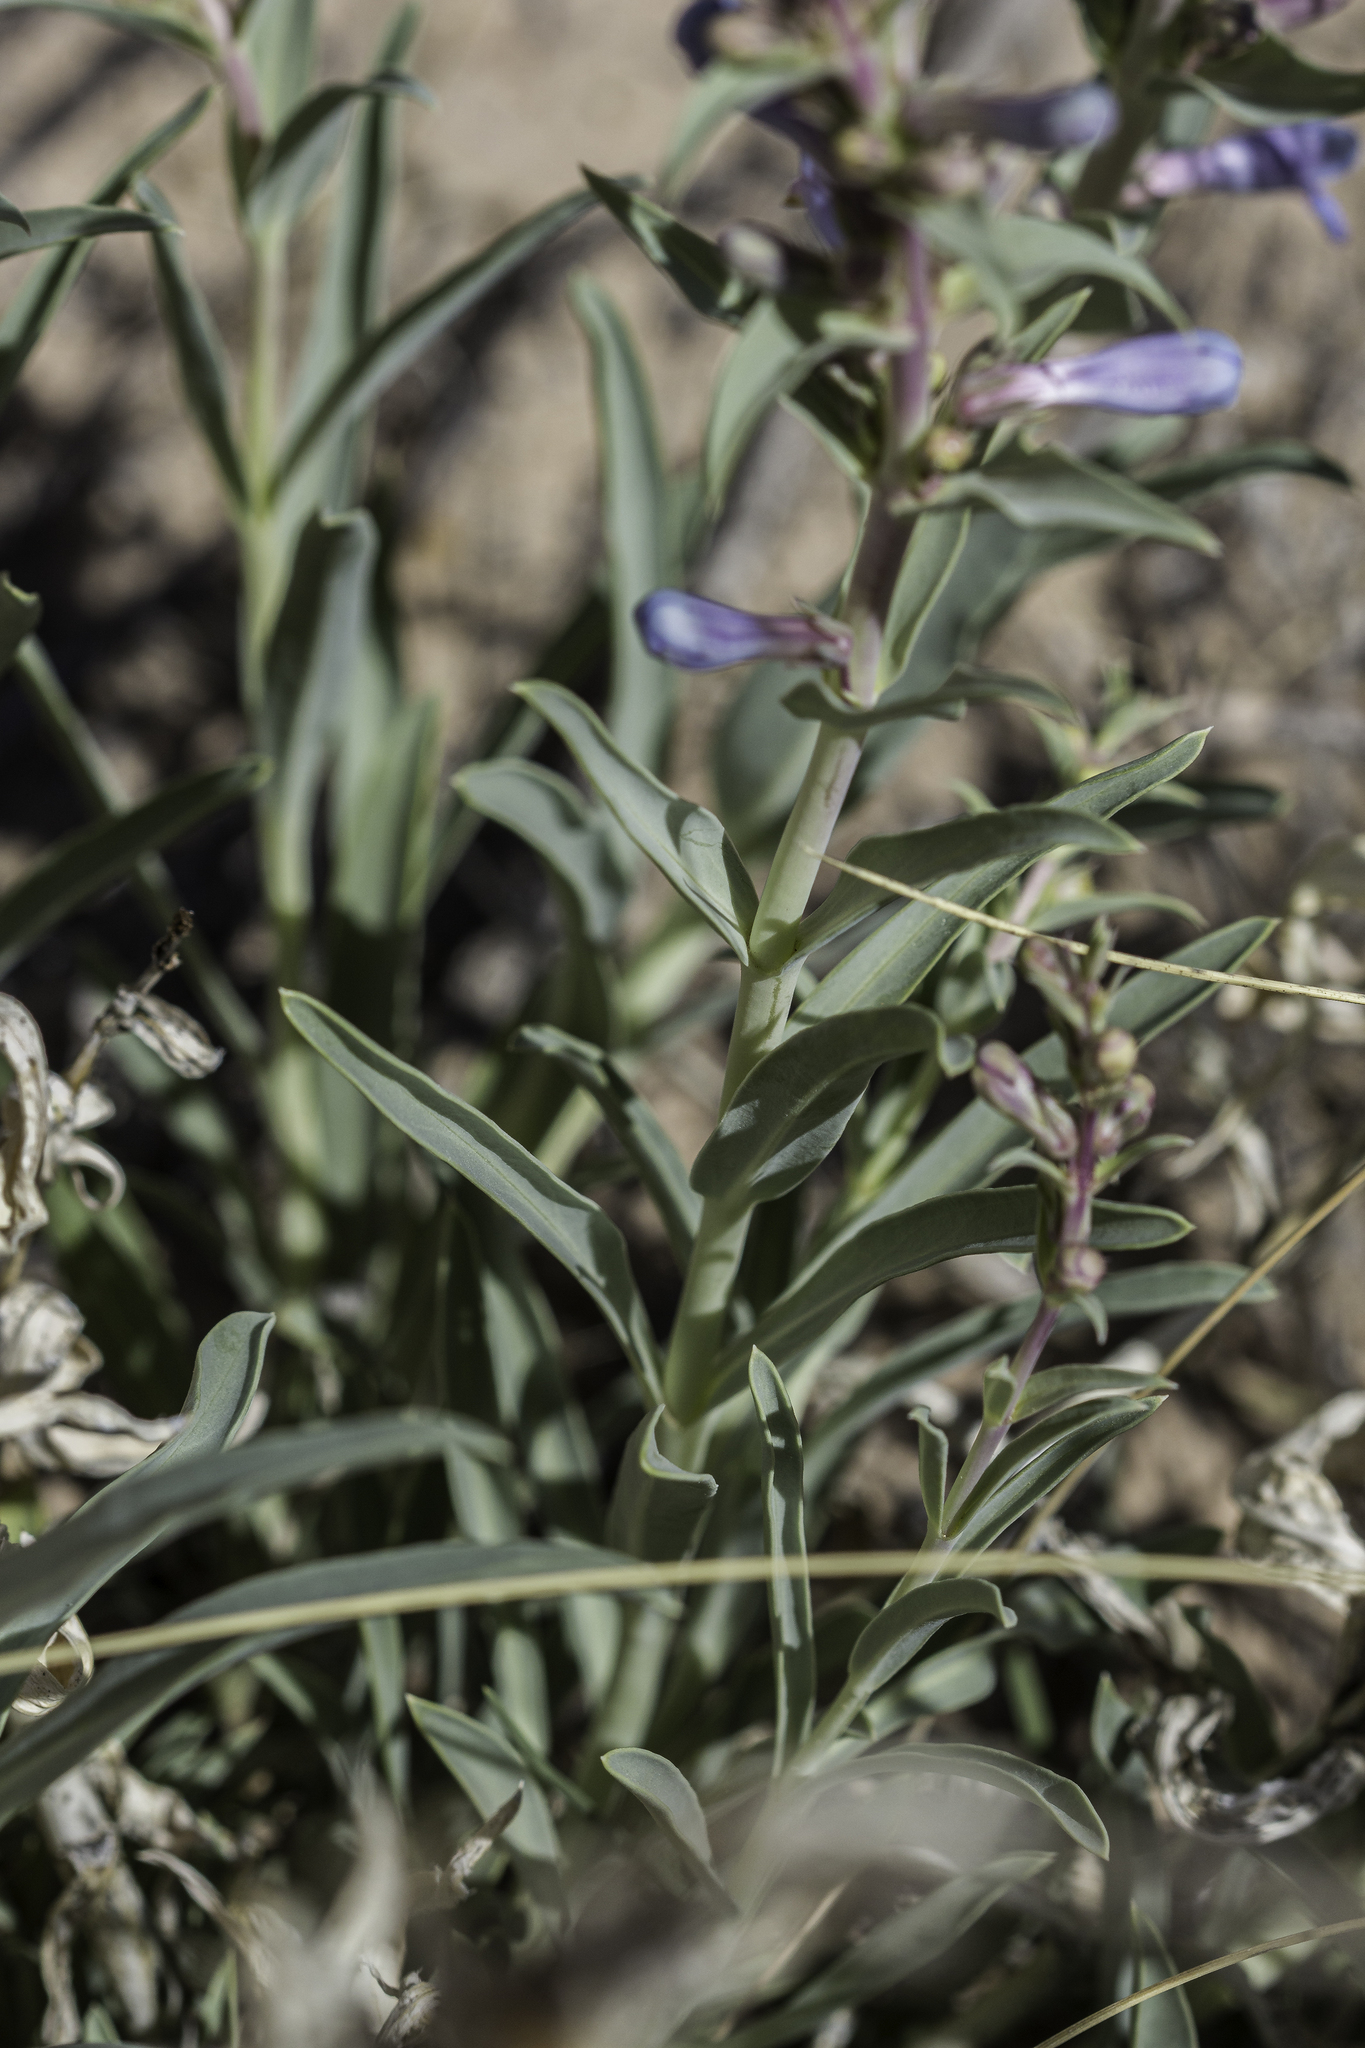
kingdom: Plantae
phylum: Tracheophyta
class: Magnoliopsida
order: Lamiales
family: Plantaginaceae
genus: Penstemon
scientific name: Penstemon angustifolius
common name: Narrow beardtongue
